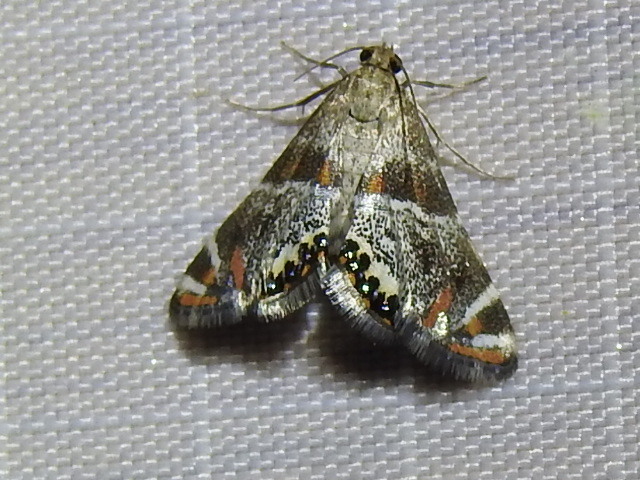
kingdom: Animalia
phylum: Arthropoda
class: Insecta
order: Lepidoptera
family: Crambidae
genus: Petrophila
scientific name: Petrophila jaliscalis
